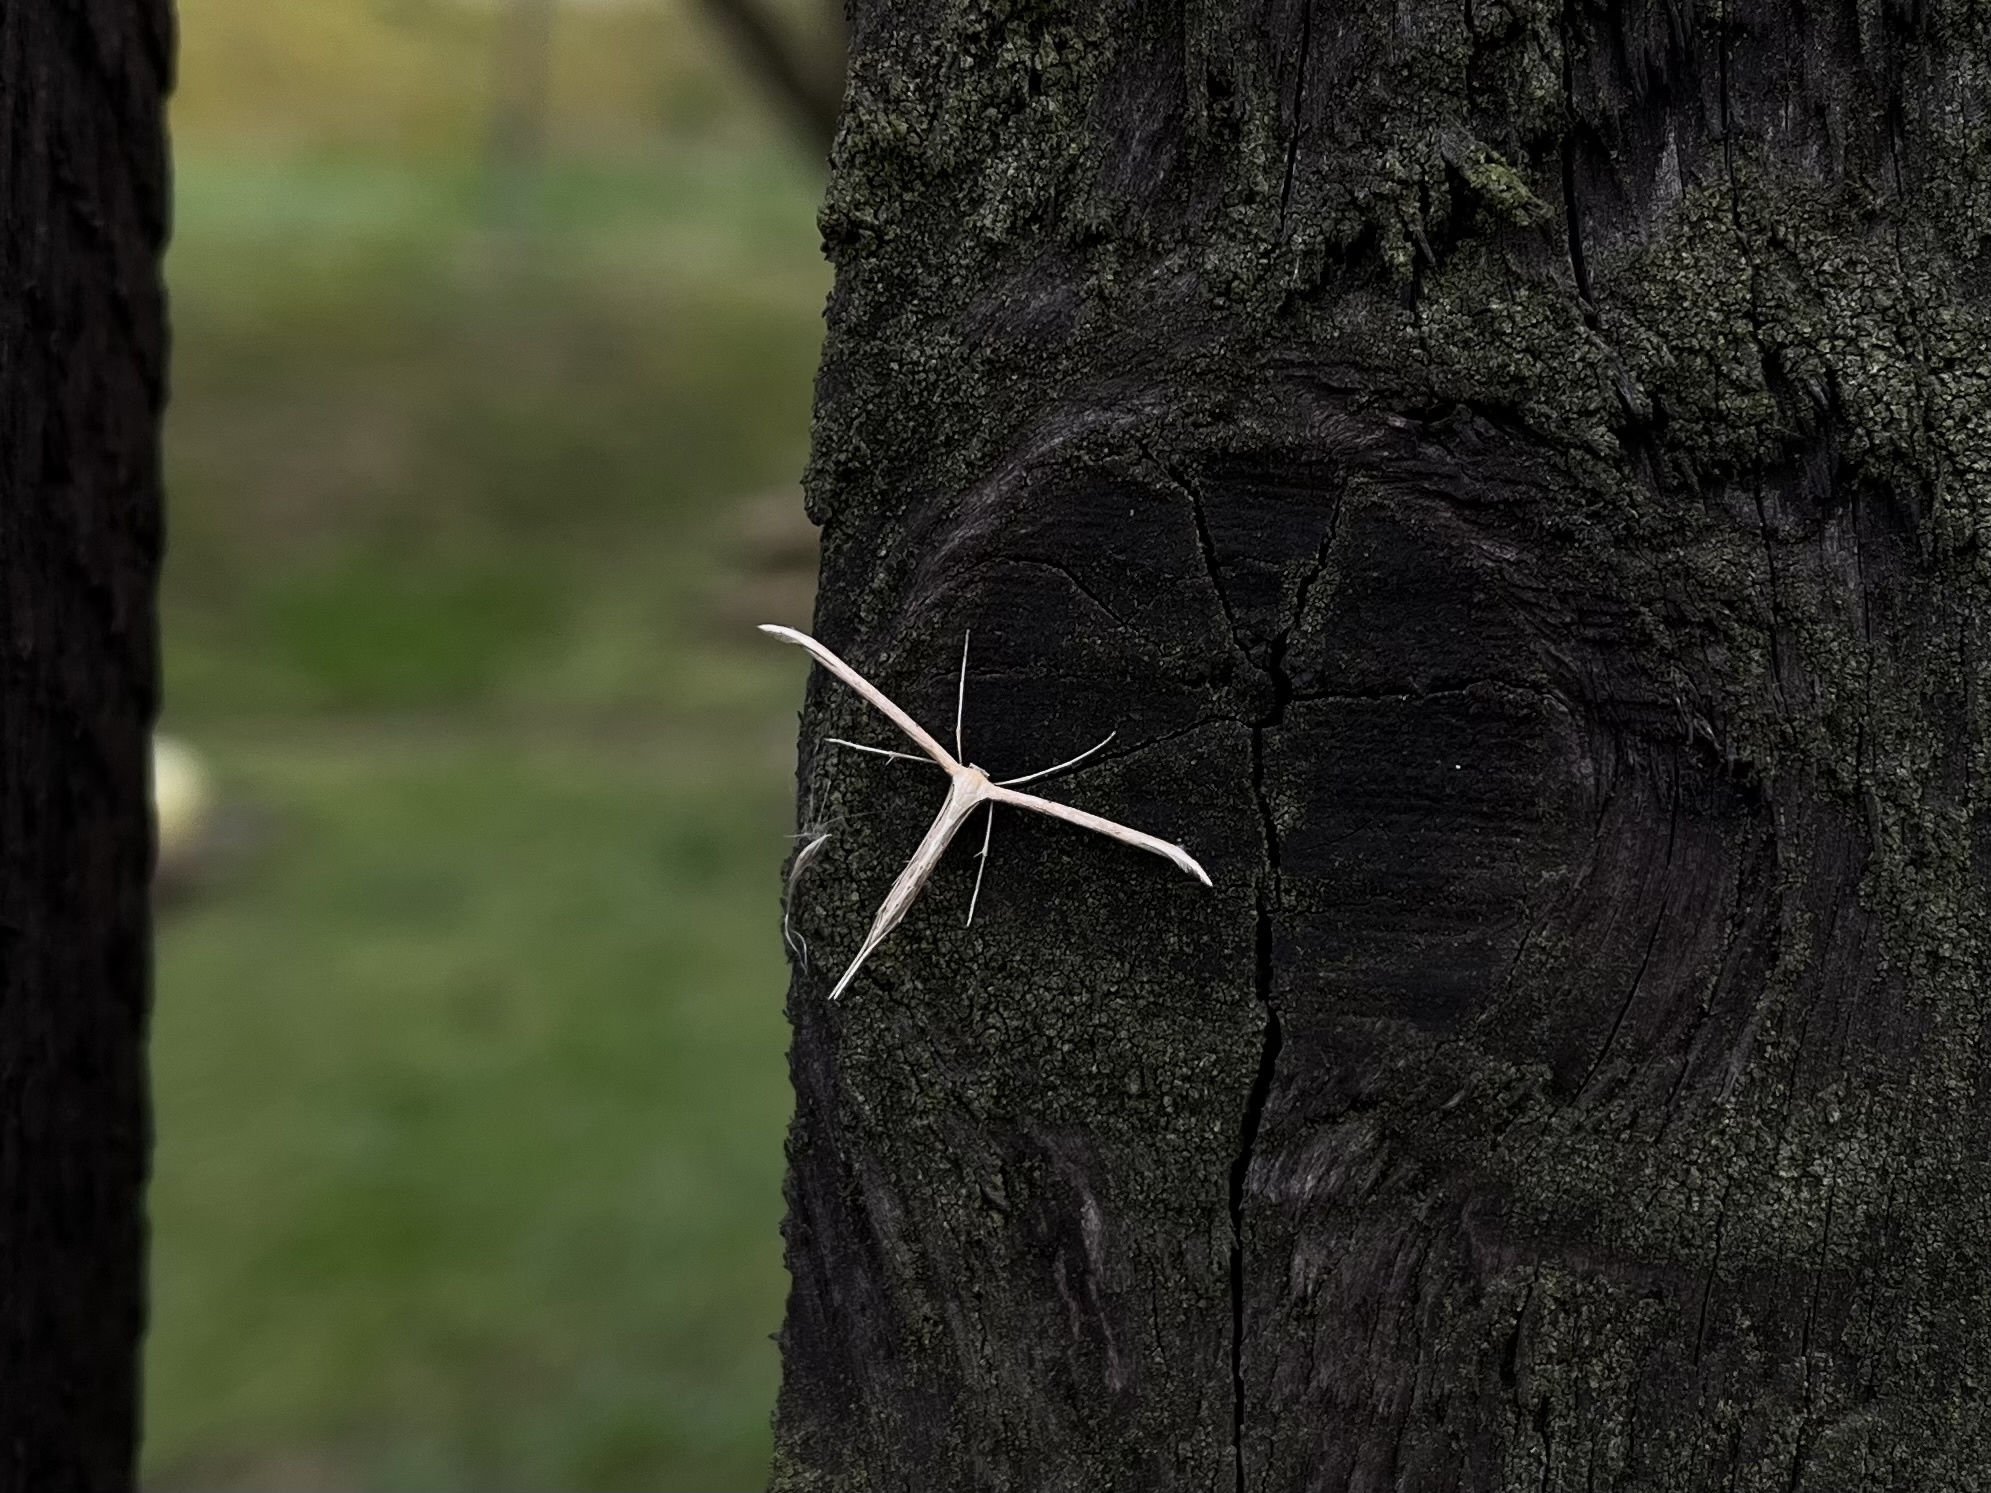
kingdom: Animalia
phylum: Arthropoda
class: Insecta
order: Lepidoptera
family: Pterophoridae
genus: Emmelina
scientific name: Emmelina monodactyla
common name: Common plume
